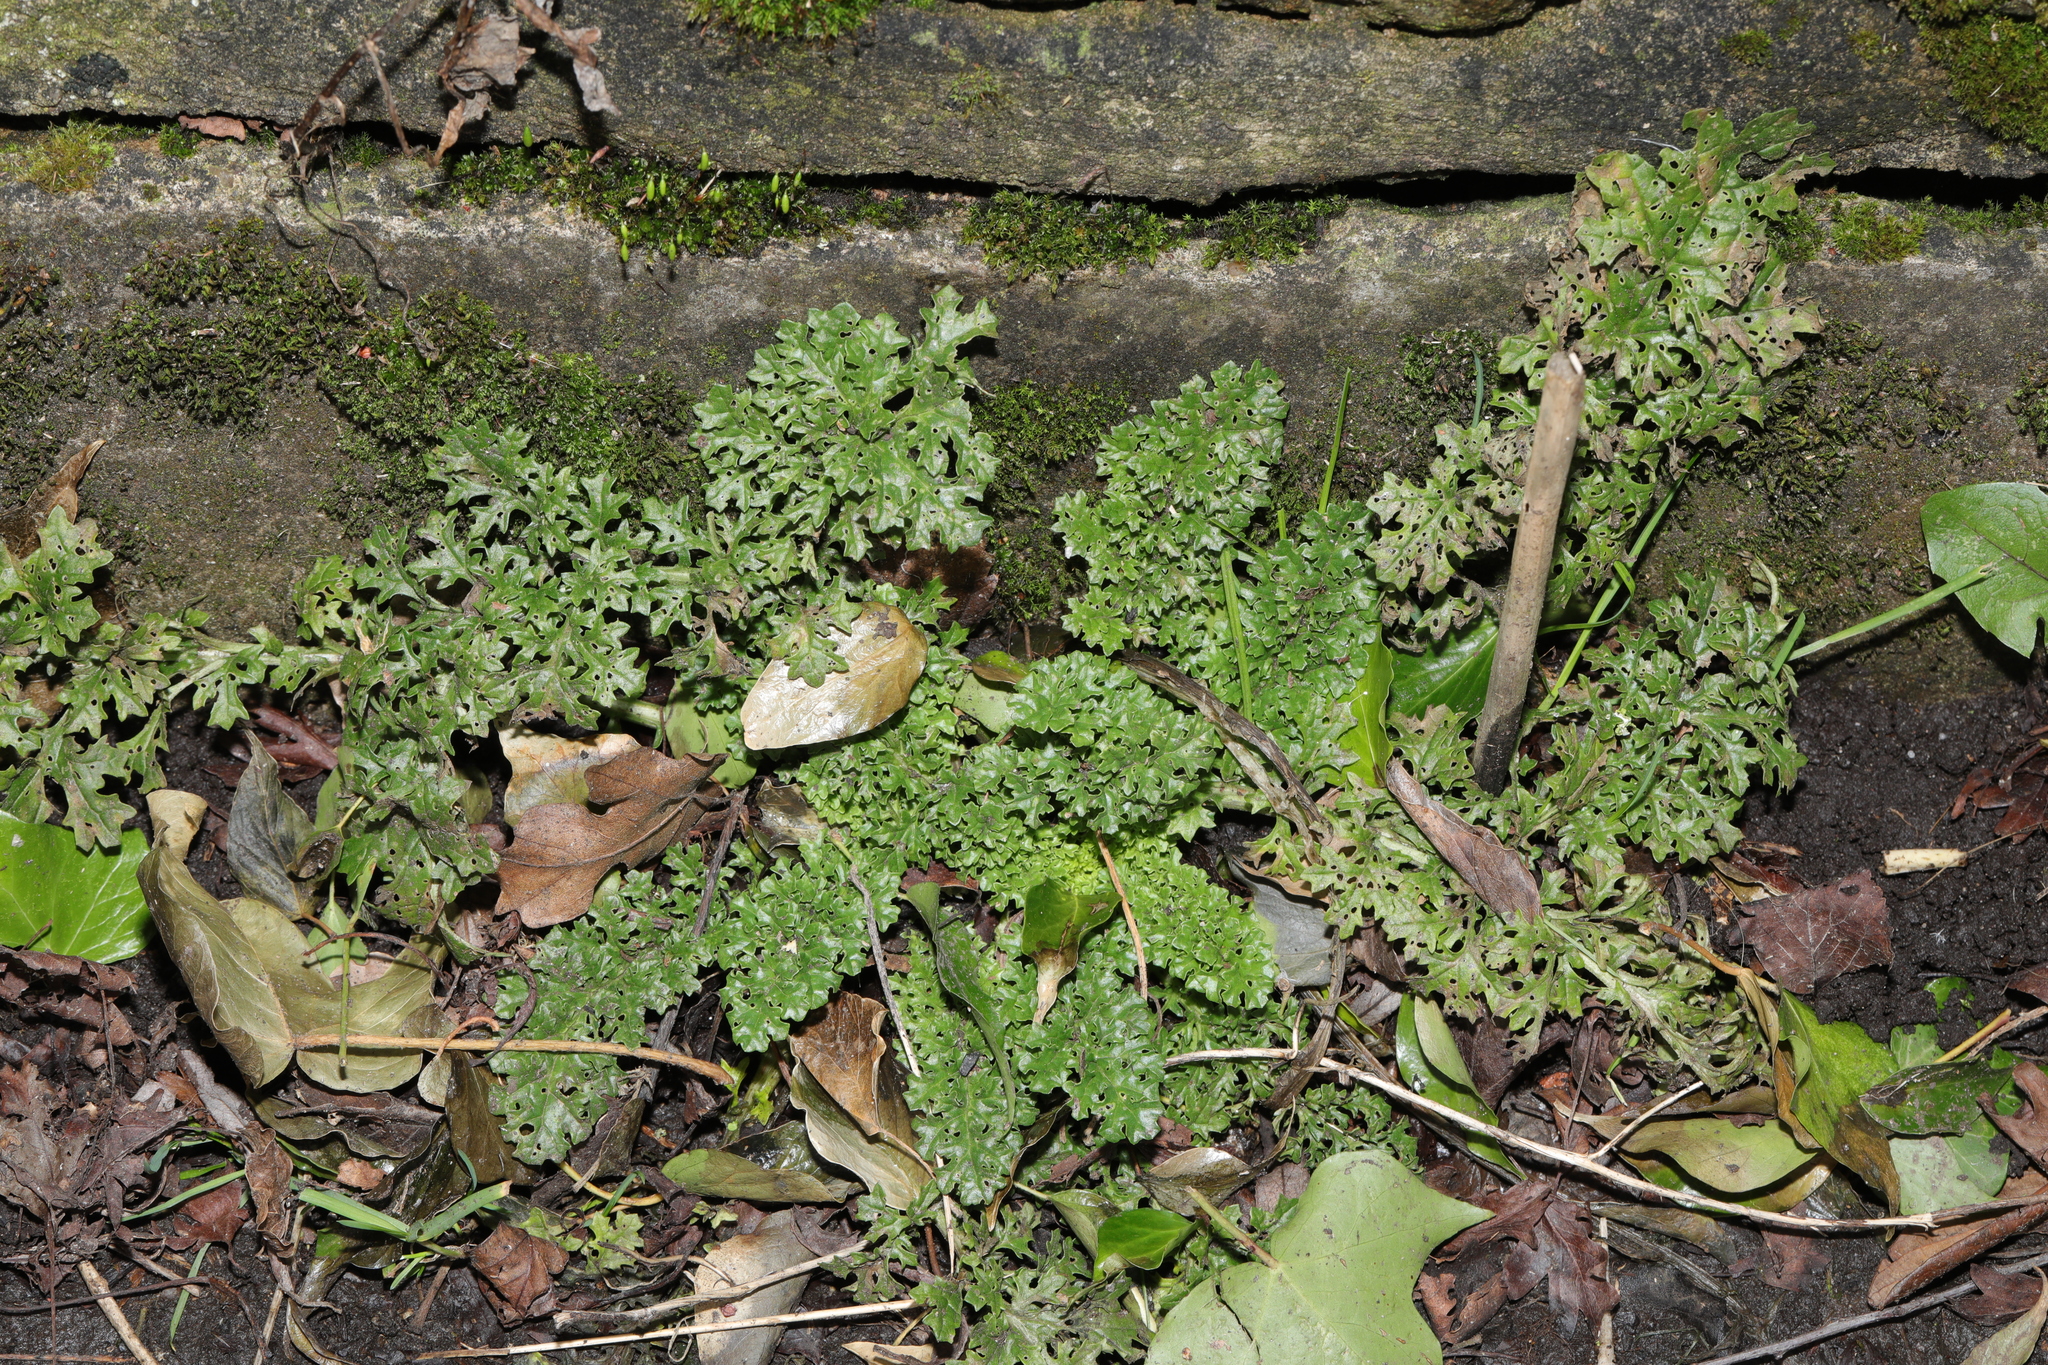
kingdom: Plantae
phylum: Tracheophyta
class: Magnoliopsida
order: Asterales
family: Asteraceae
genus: Jacobaea
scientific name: Jacobaea vulgaris
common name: Stinking willie
